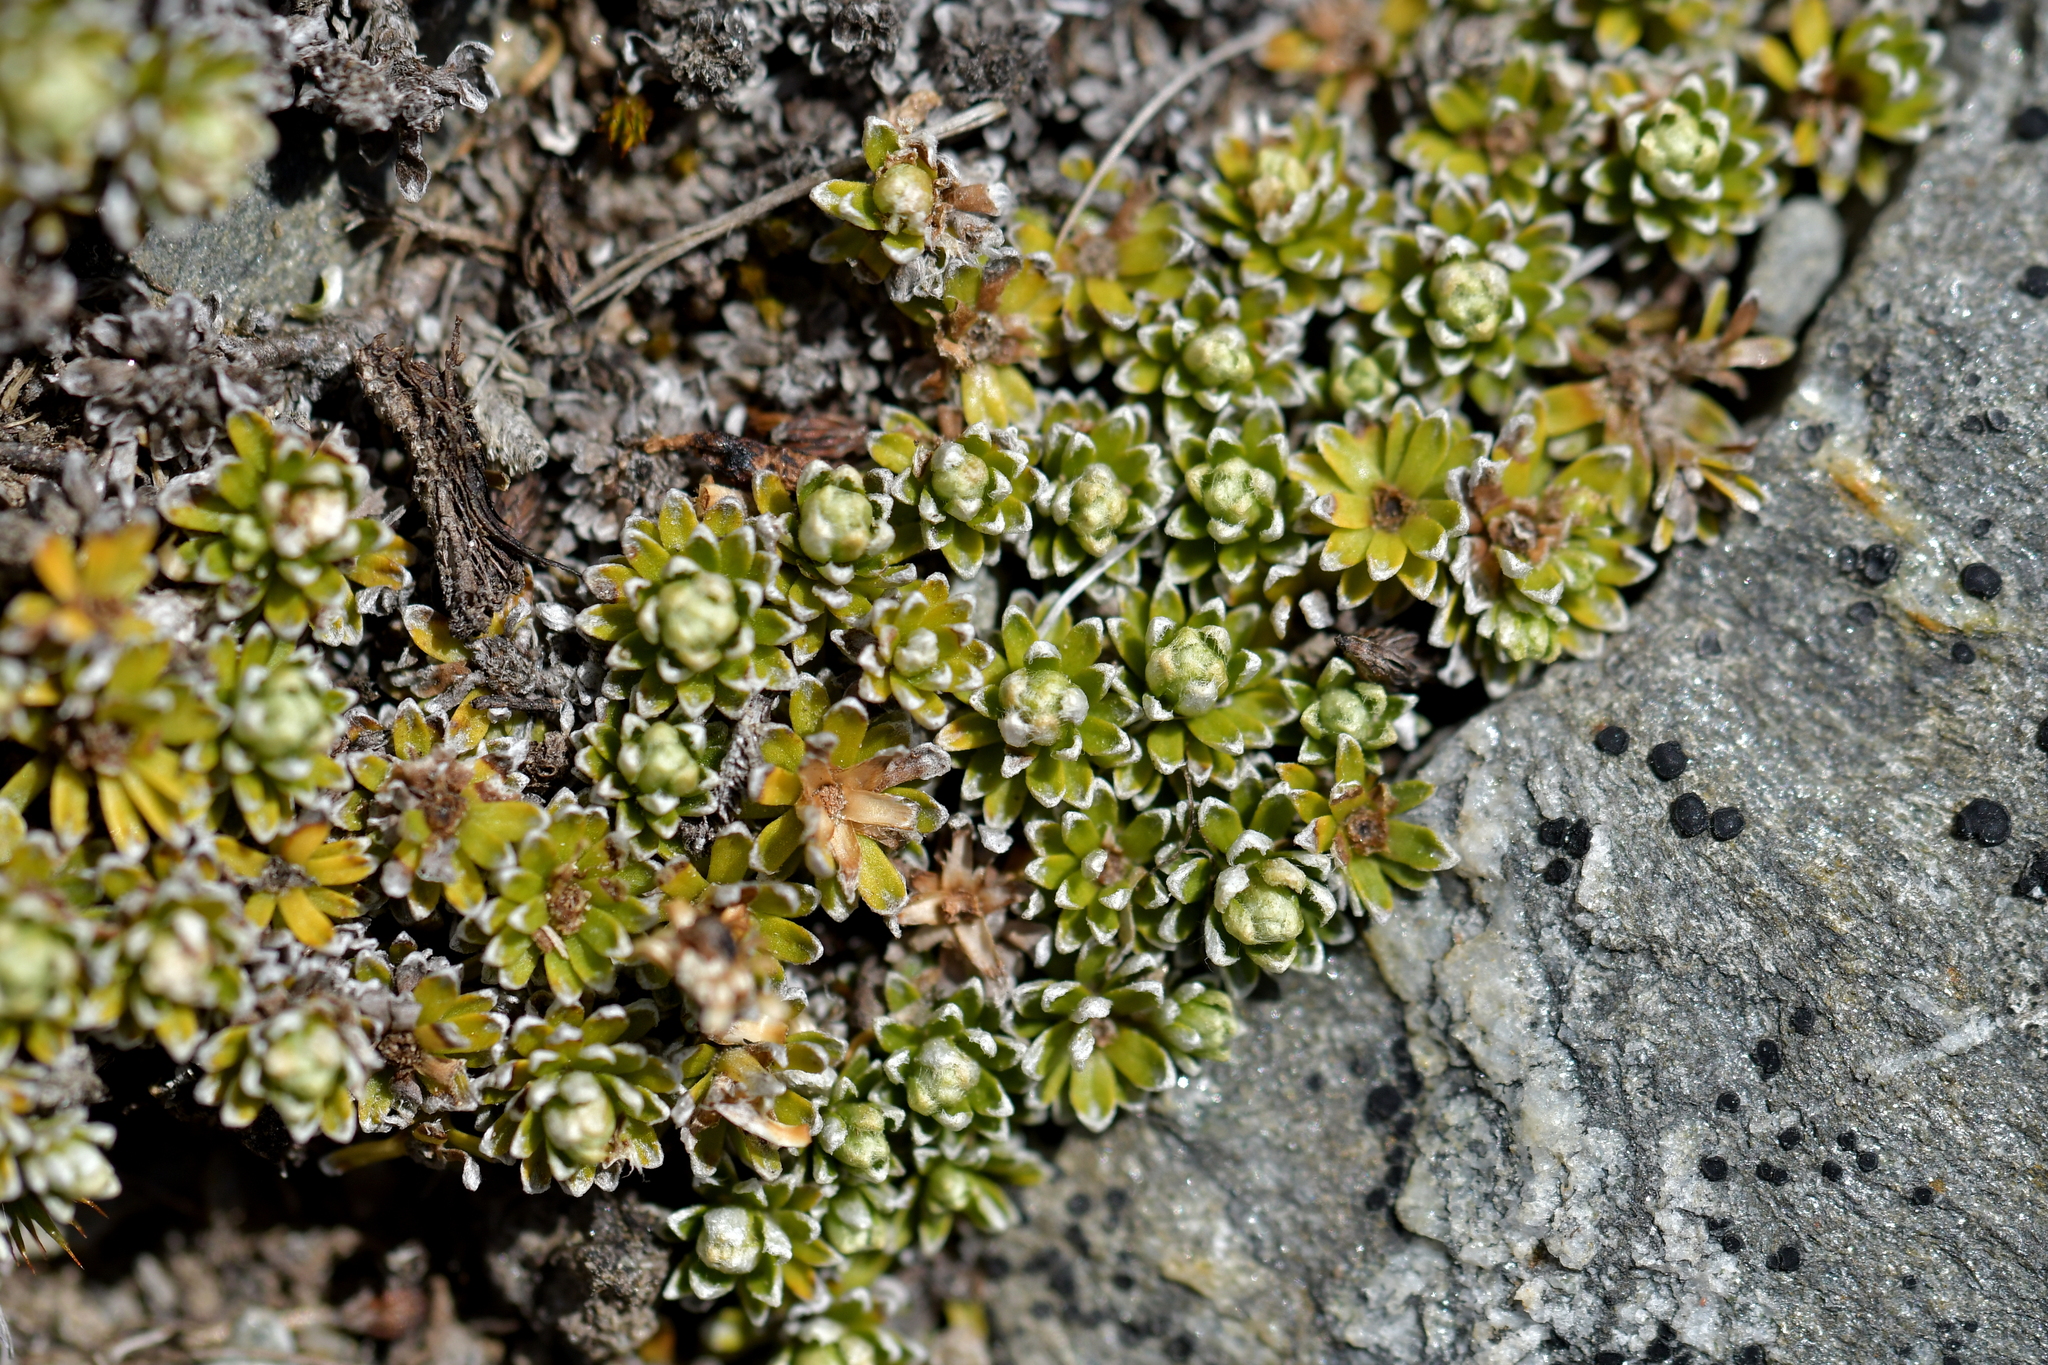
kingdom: Plantae
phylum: Tracheophyta
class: Magnoliopsida
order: Asterales
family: Asteraceae
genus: Raoulia
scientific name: Raoulia subsericea
